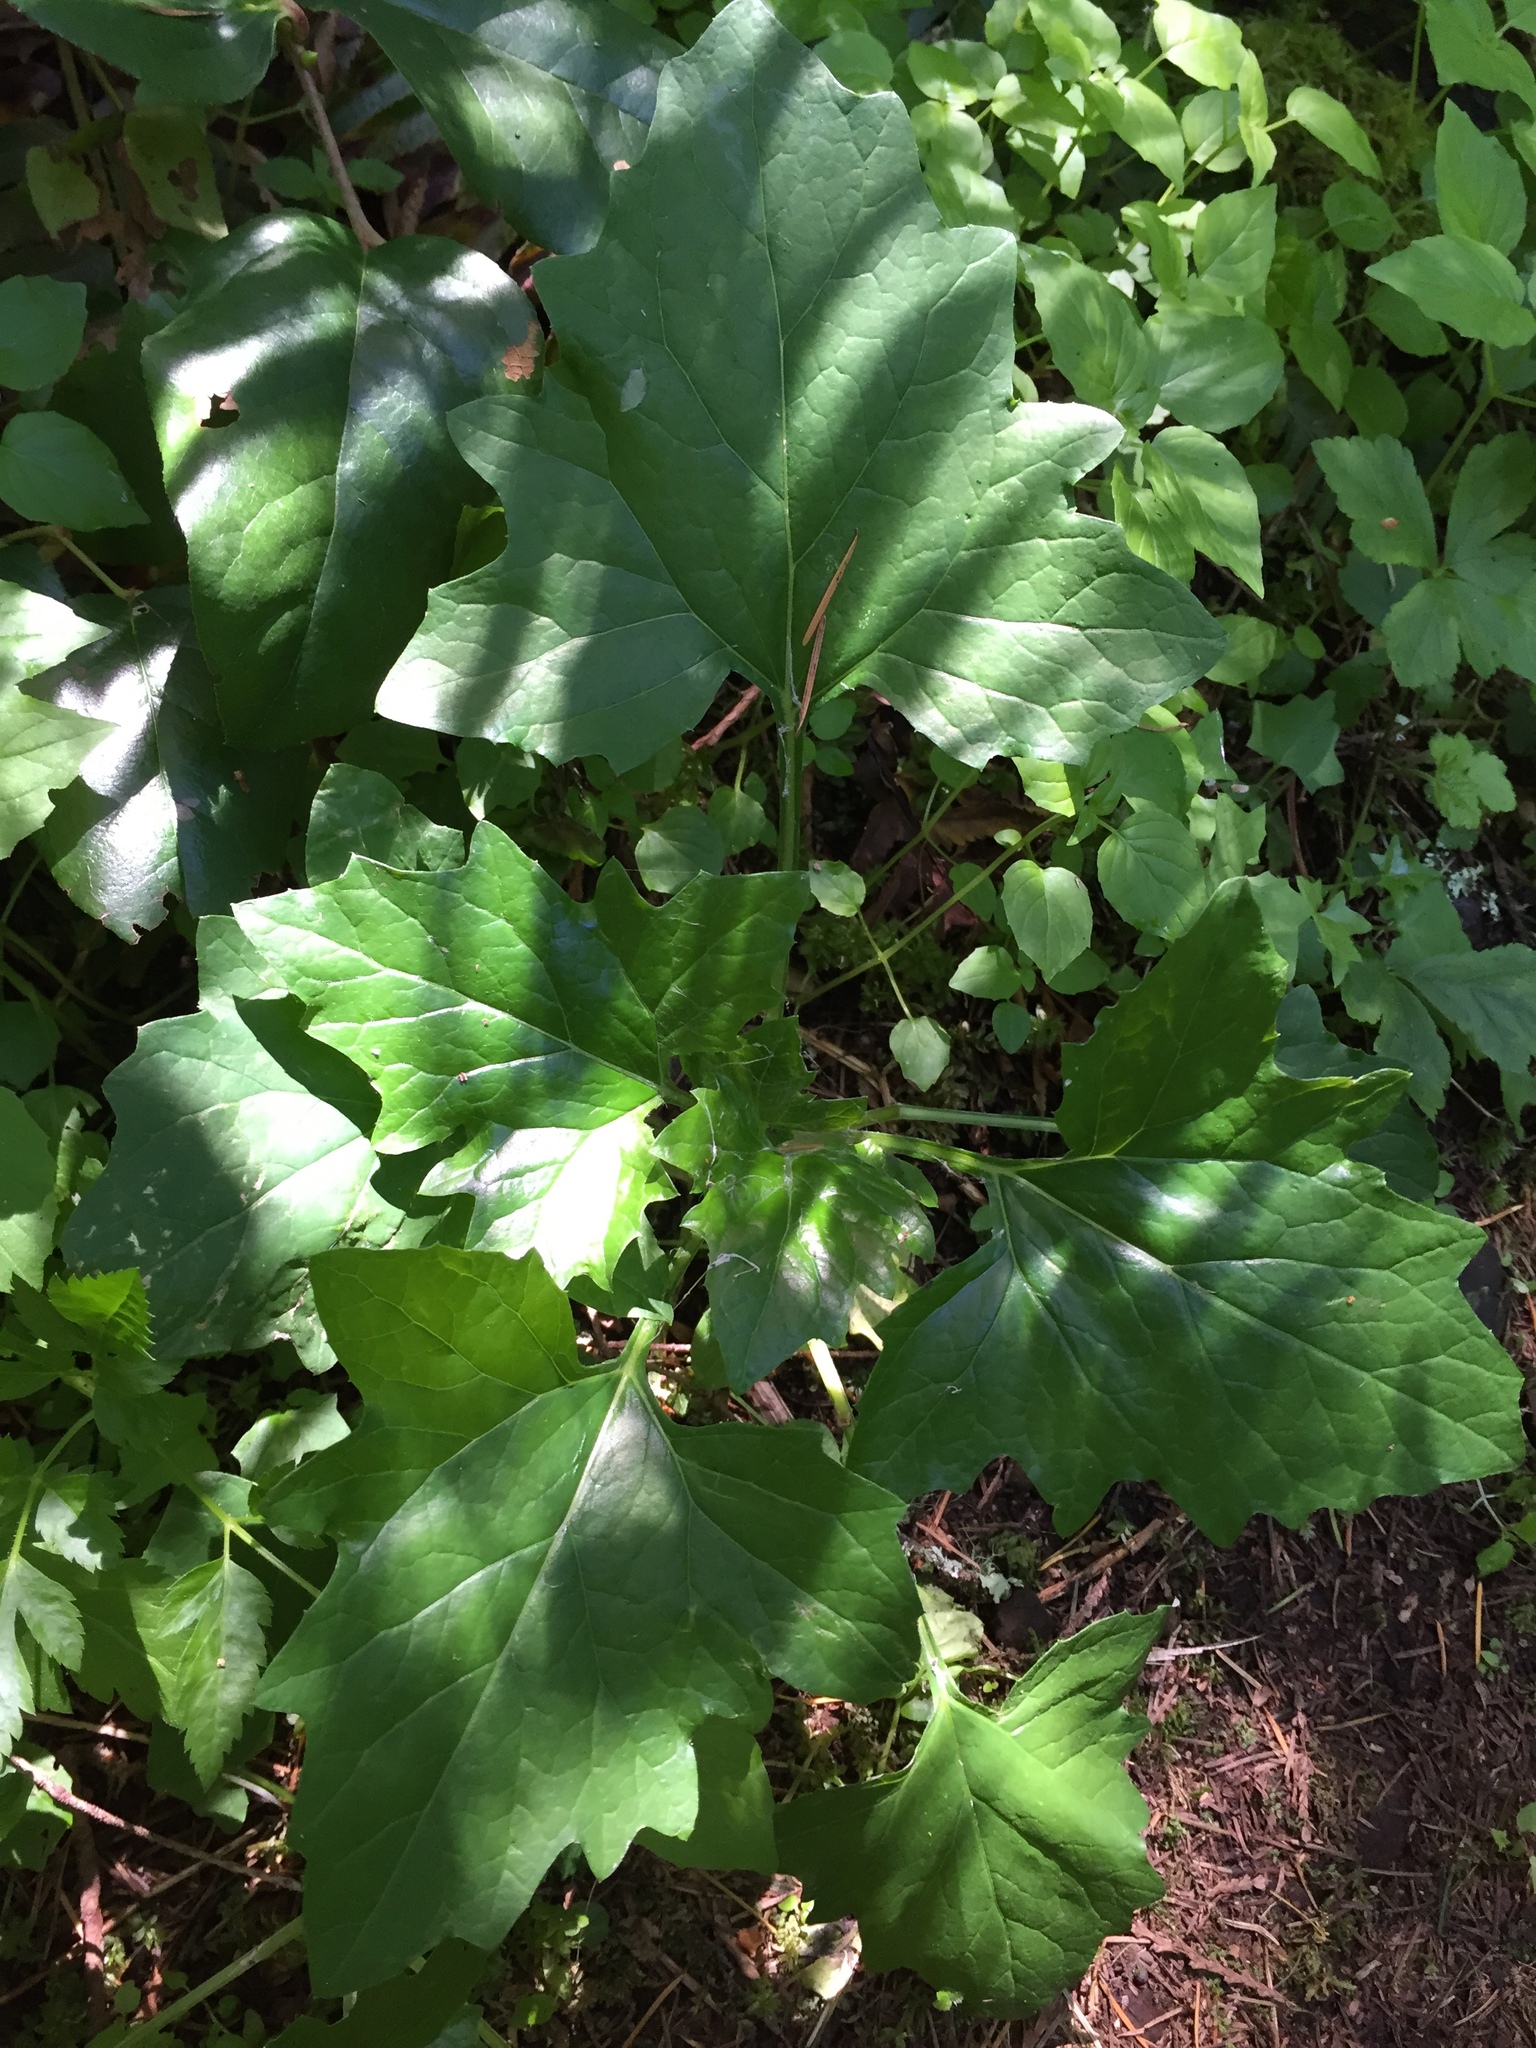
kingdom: Plantae
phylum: Tracheophyta
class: Magnoliopsida
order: Asterales
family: Asteraceae
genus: Adenocaulon
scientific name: Adenocaulon bicolor
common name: Trailplant
